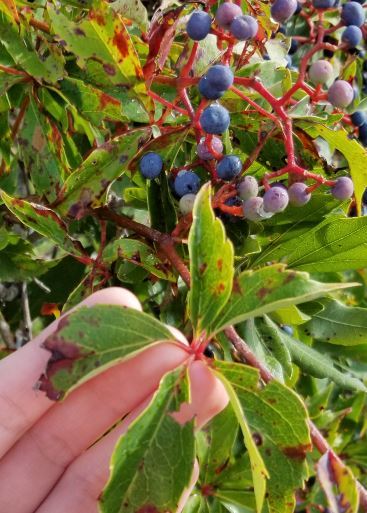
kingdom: Plantae
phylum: Tracheophyta
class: Magnoliopsida
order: Vitales
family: Vitaceae
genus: Parthenocissus
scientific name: Parthenocissus quinquefolia
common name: Virginia-creeper
